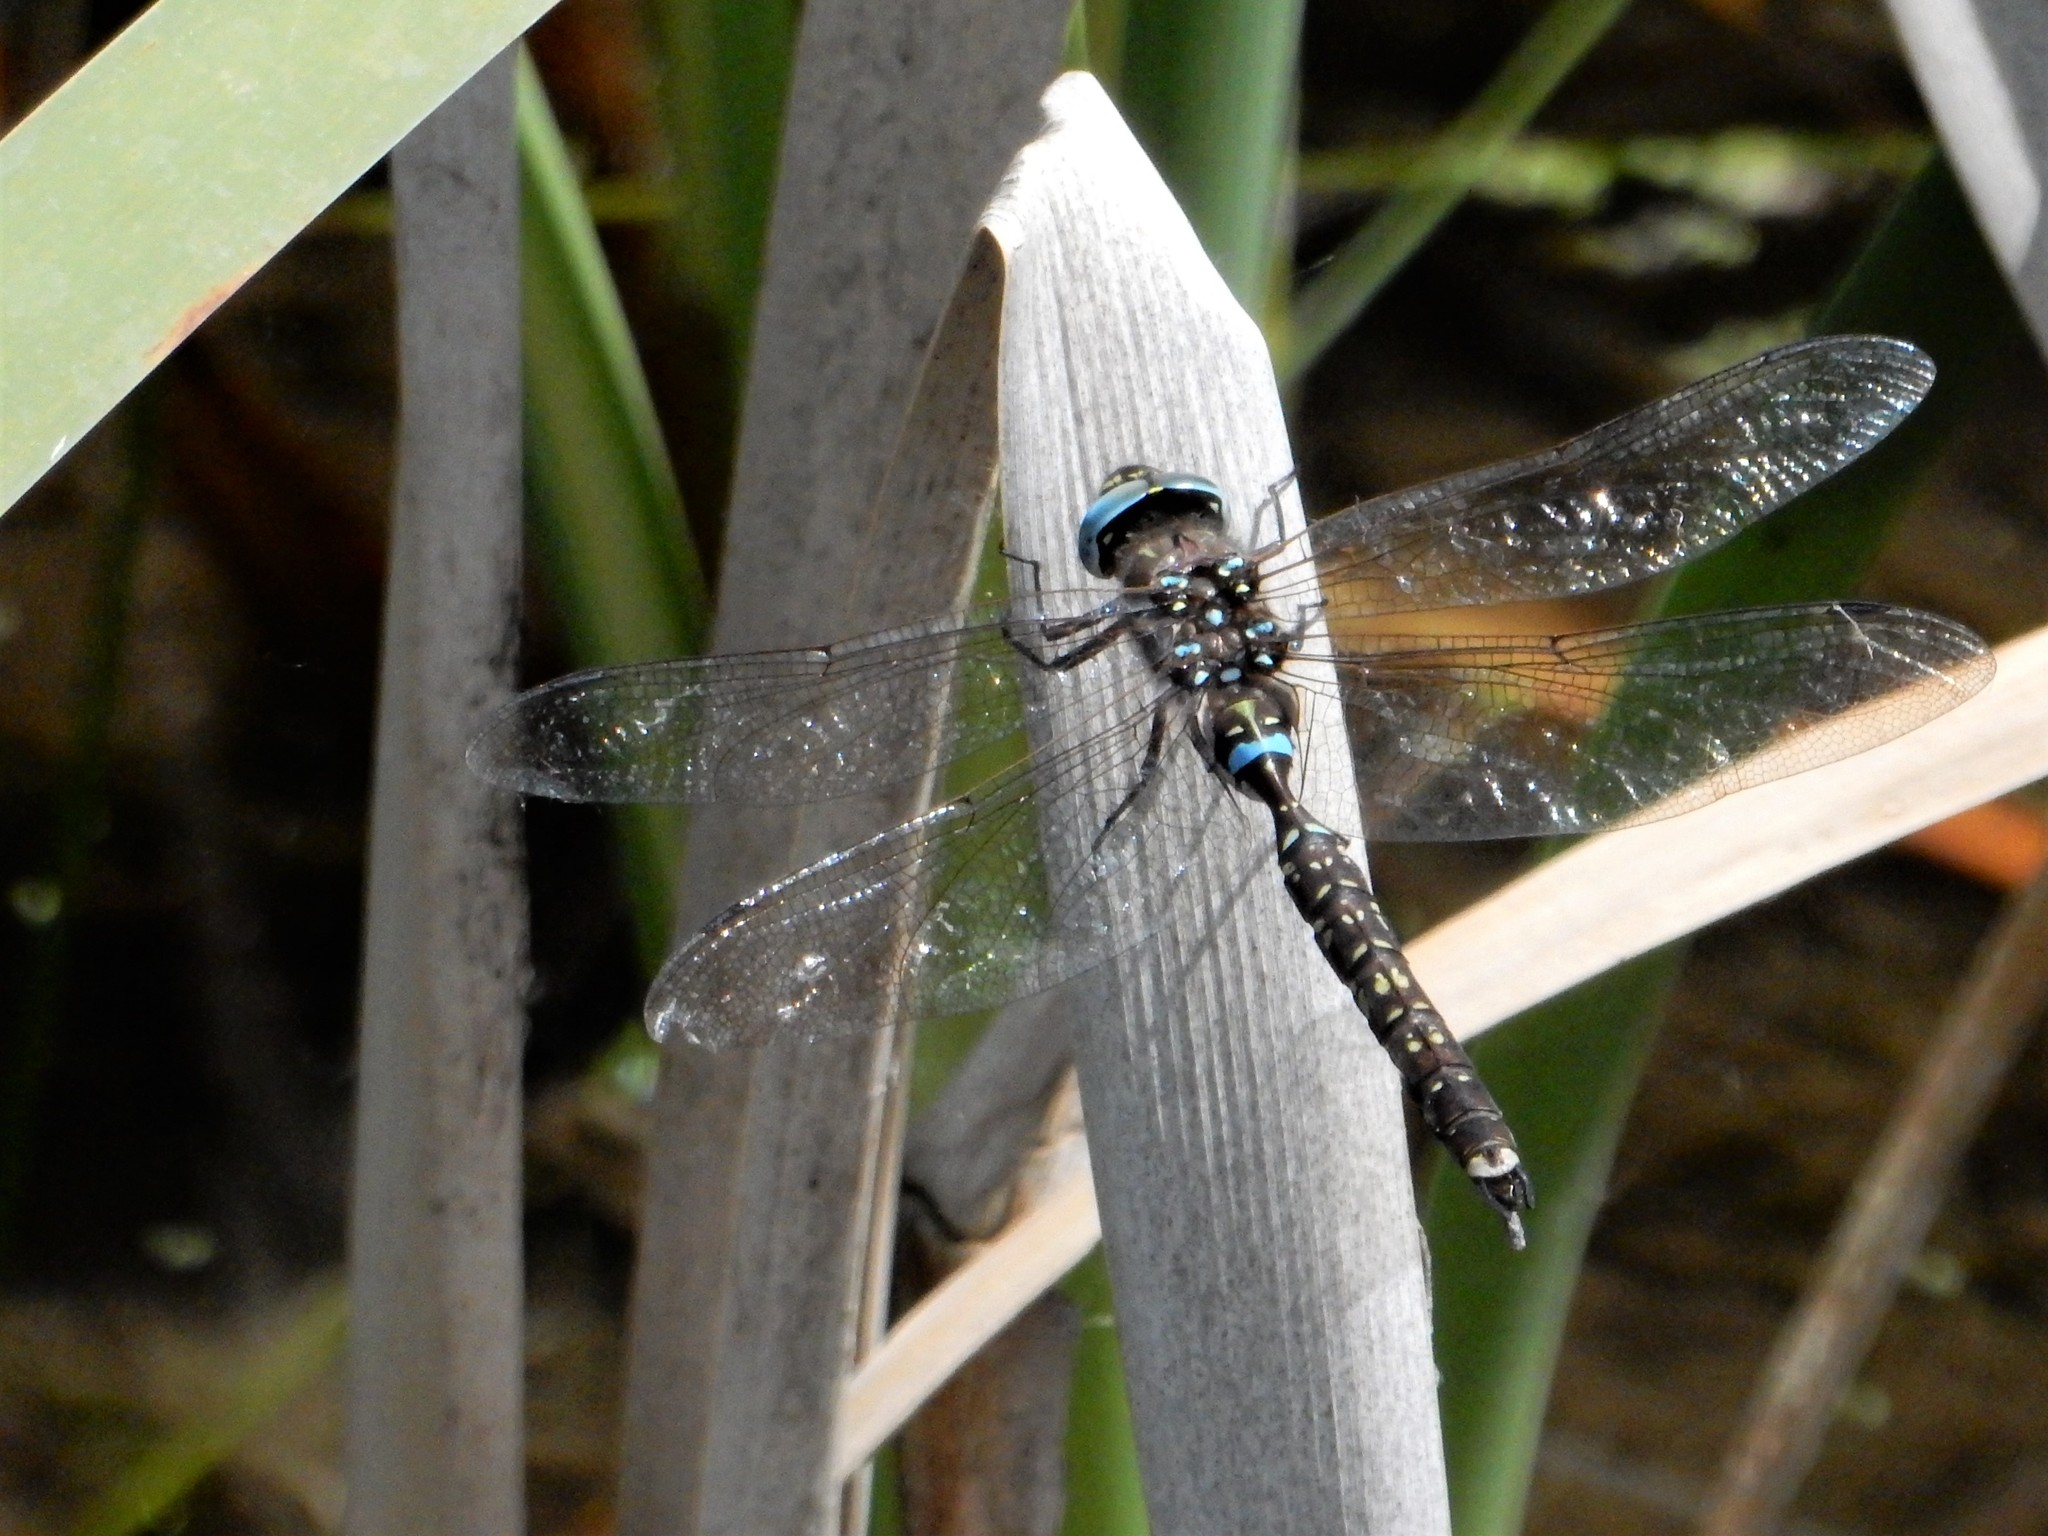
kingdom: Animalia
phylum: Arthropoda
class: Insecta
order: Odonata
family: Aeshnidae
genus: Aeshna
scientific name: Aeshna brevistyla
